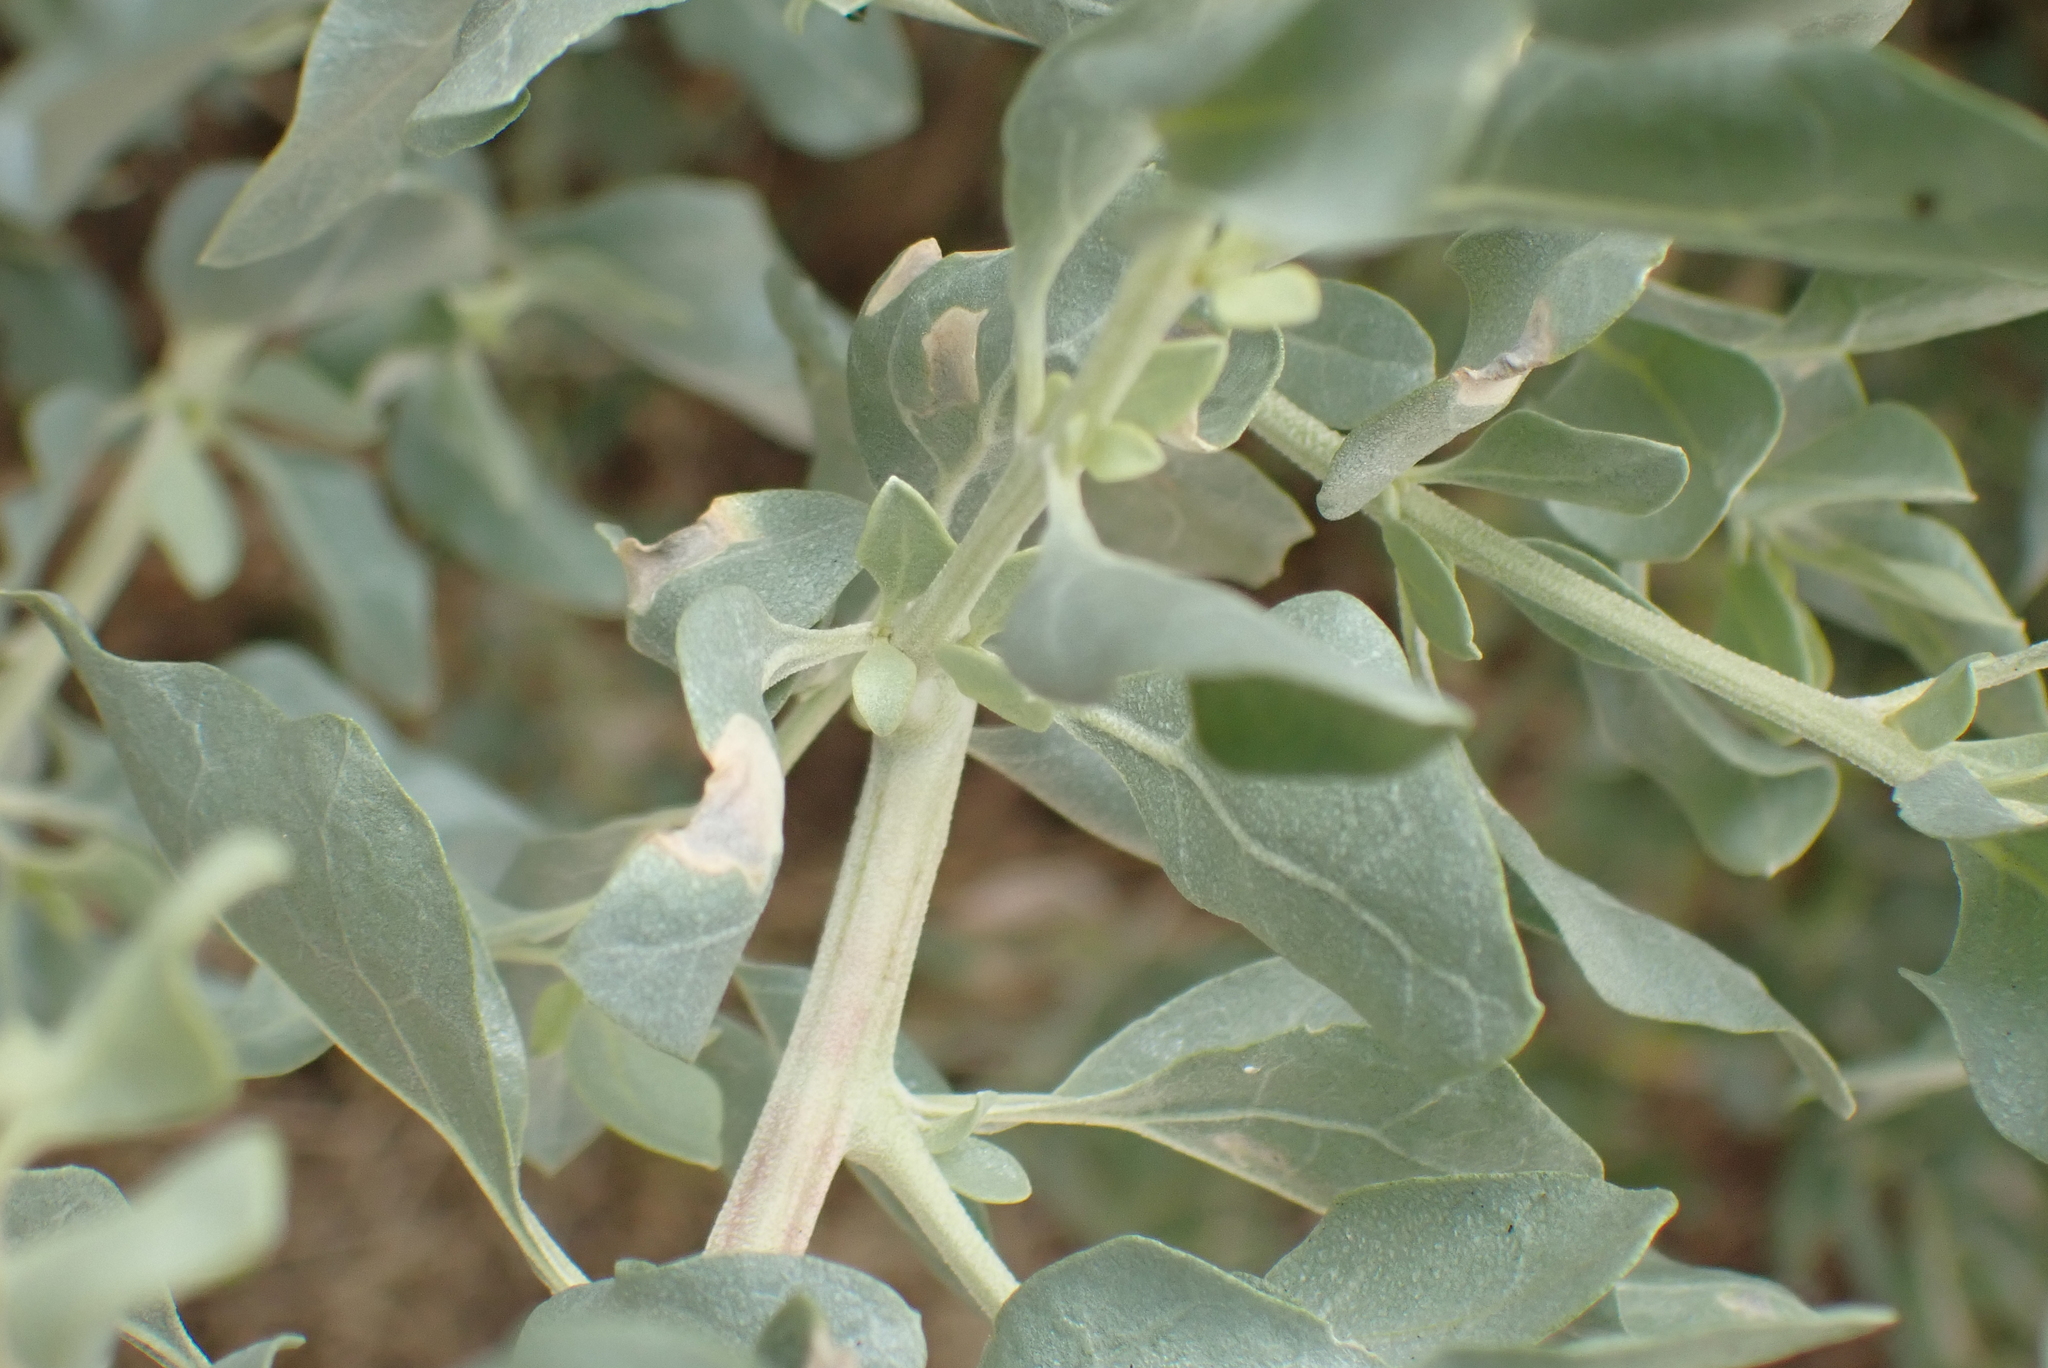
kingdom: Plantae
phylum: Tracheophyta
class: Magnoliopsida
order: Caryophyllales
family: Amaranthaceae
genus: Atriplex
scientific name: Atriplex halimus
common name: Shrubby orache
